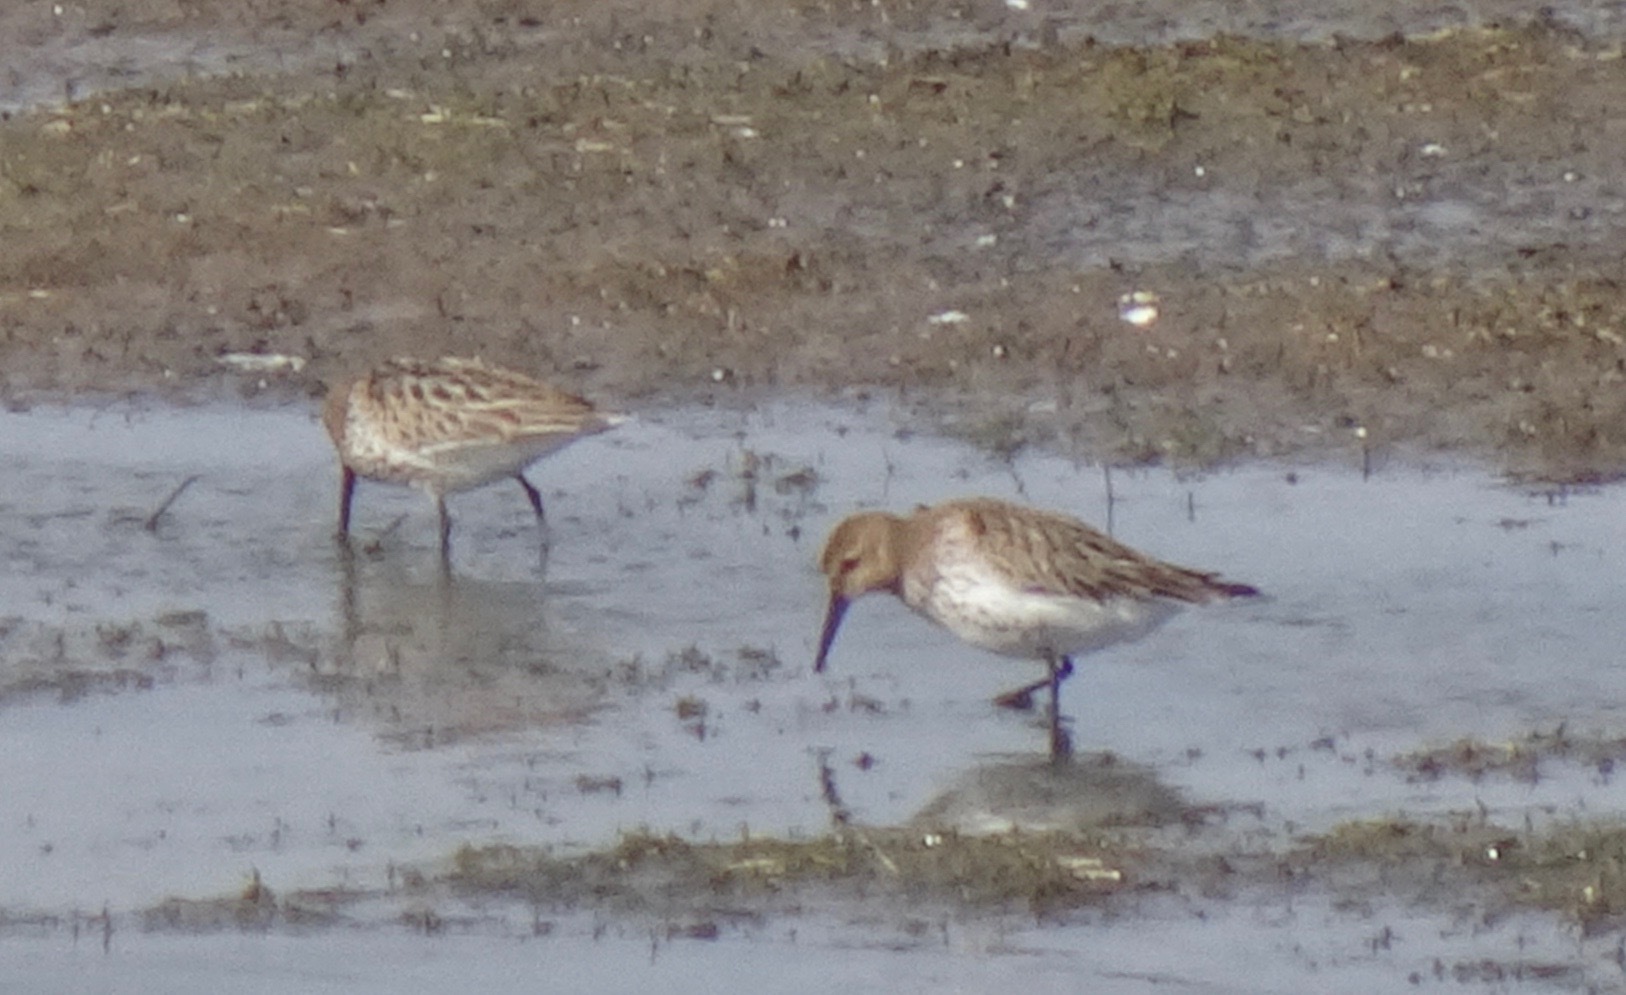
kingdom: Animalia
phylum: Chordata
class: Aves
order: Charadriiformes
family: Scolopacidae
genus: Calidris
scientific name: Calidris alpina
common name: Dunlin
